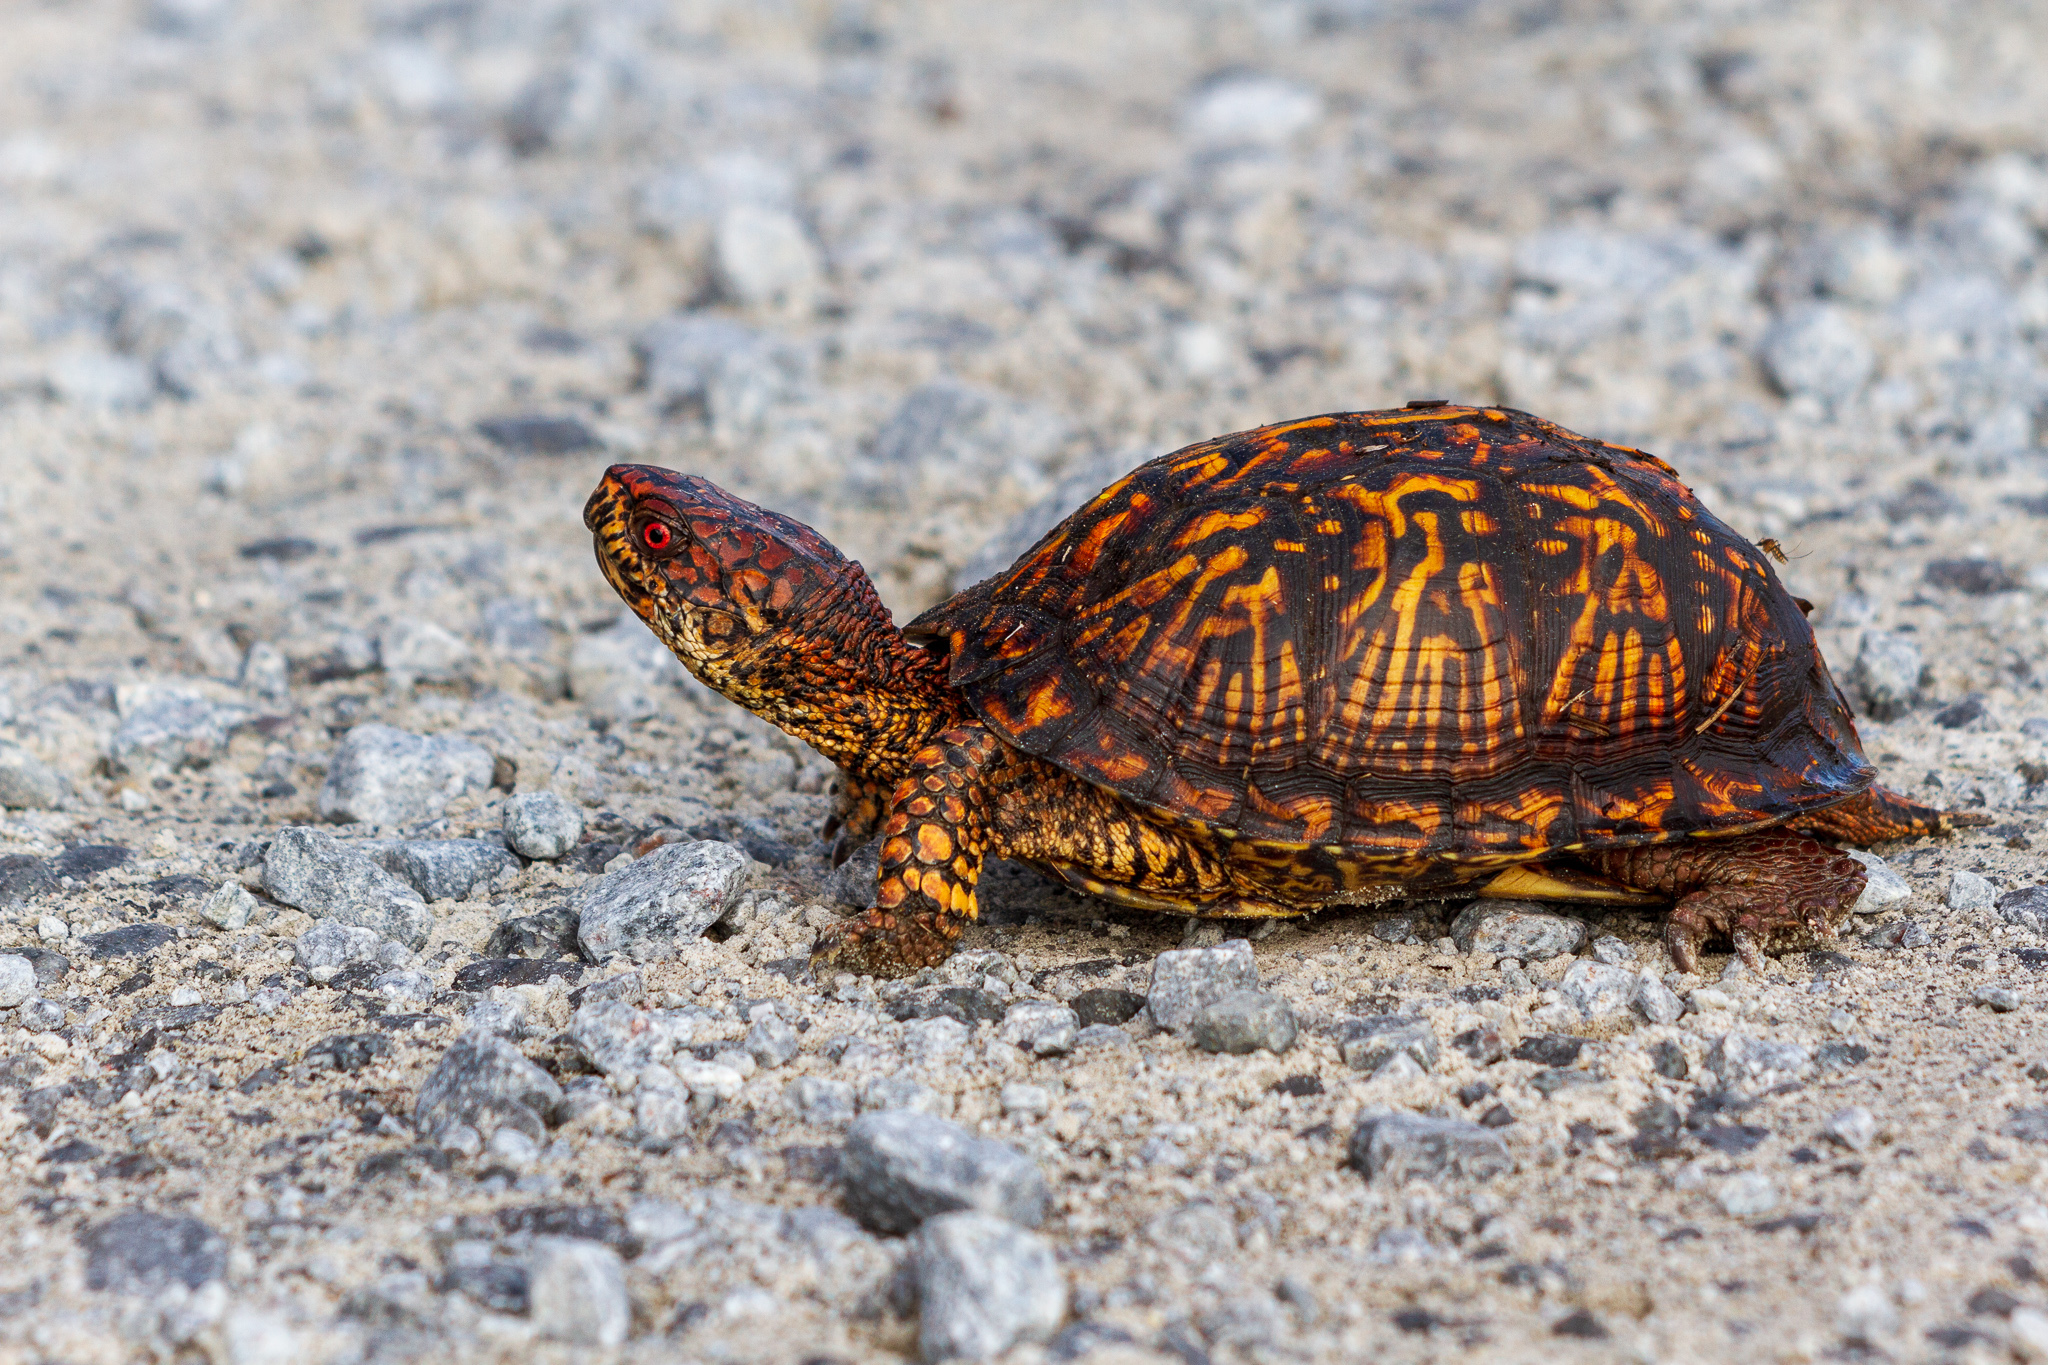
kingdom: Animalia
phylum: Chordata
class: Testudines
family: Emydidae
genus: Terrapene
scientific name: Terrapene carolina
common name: Common box turtle
